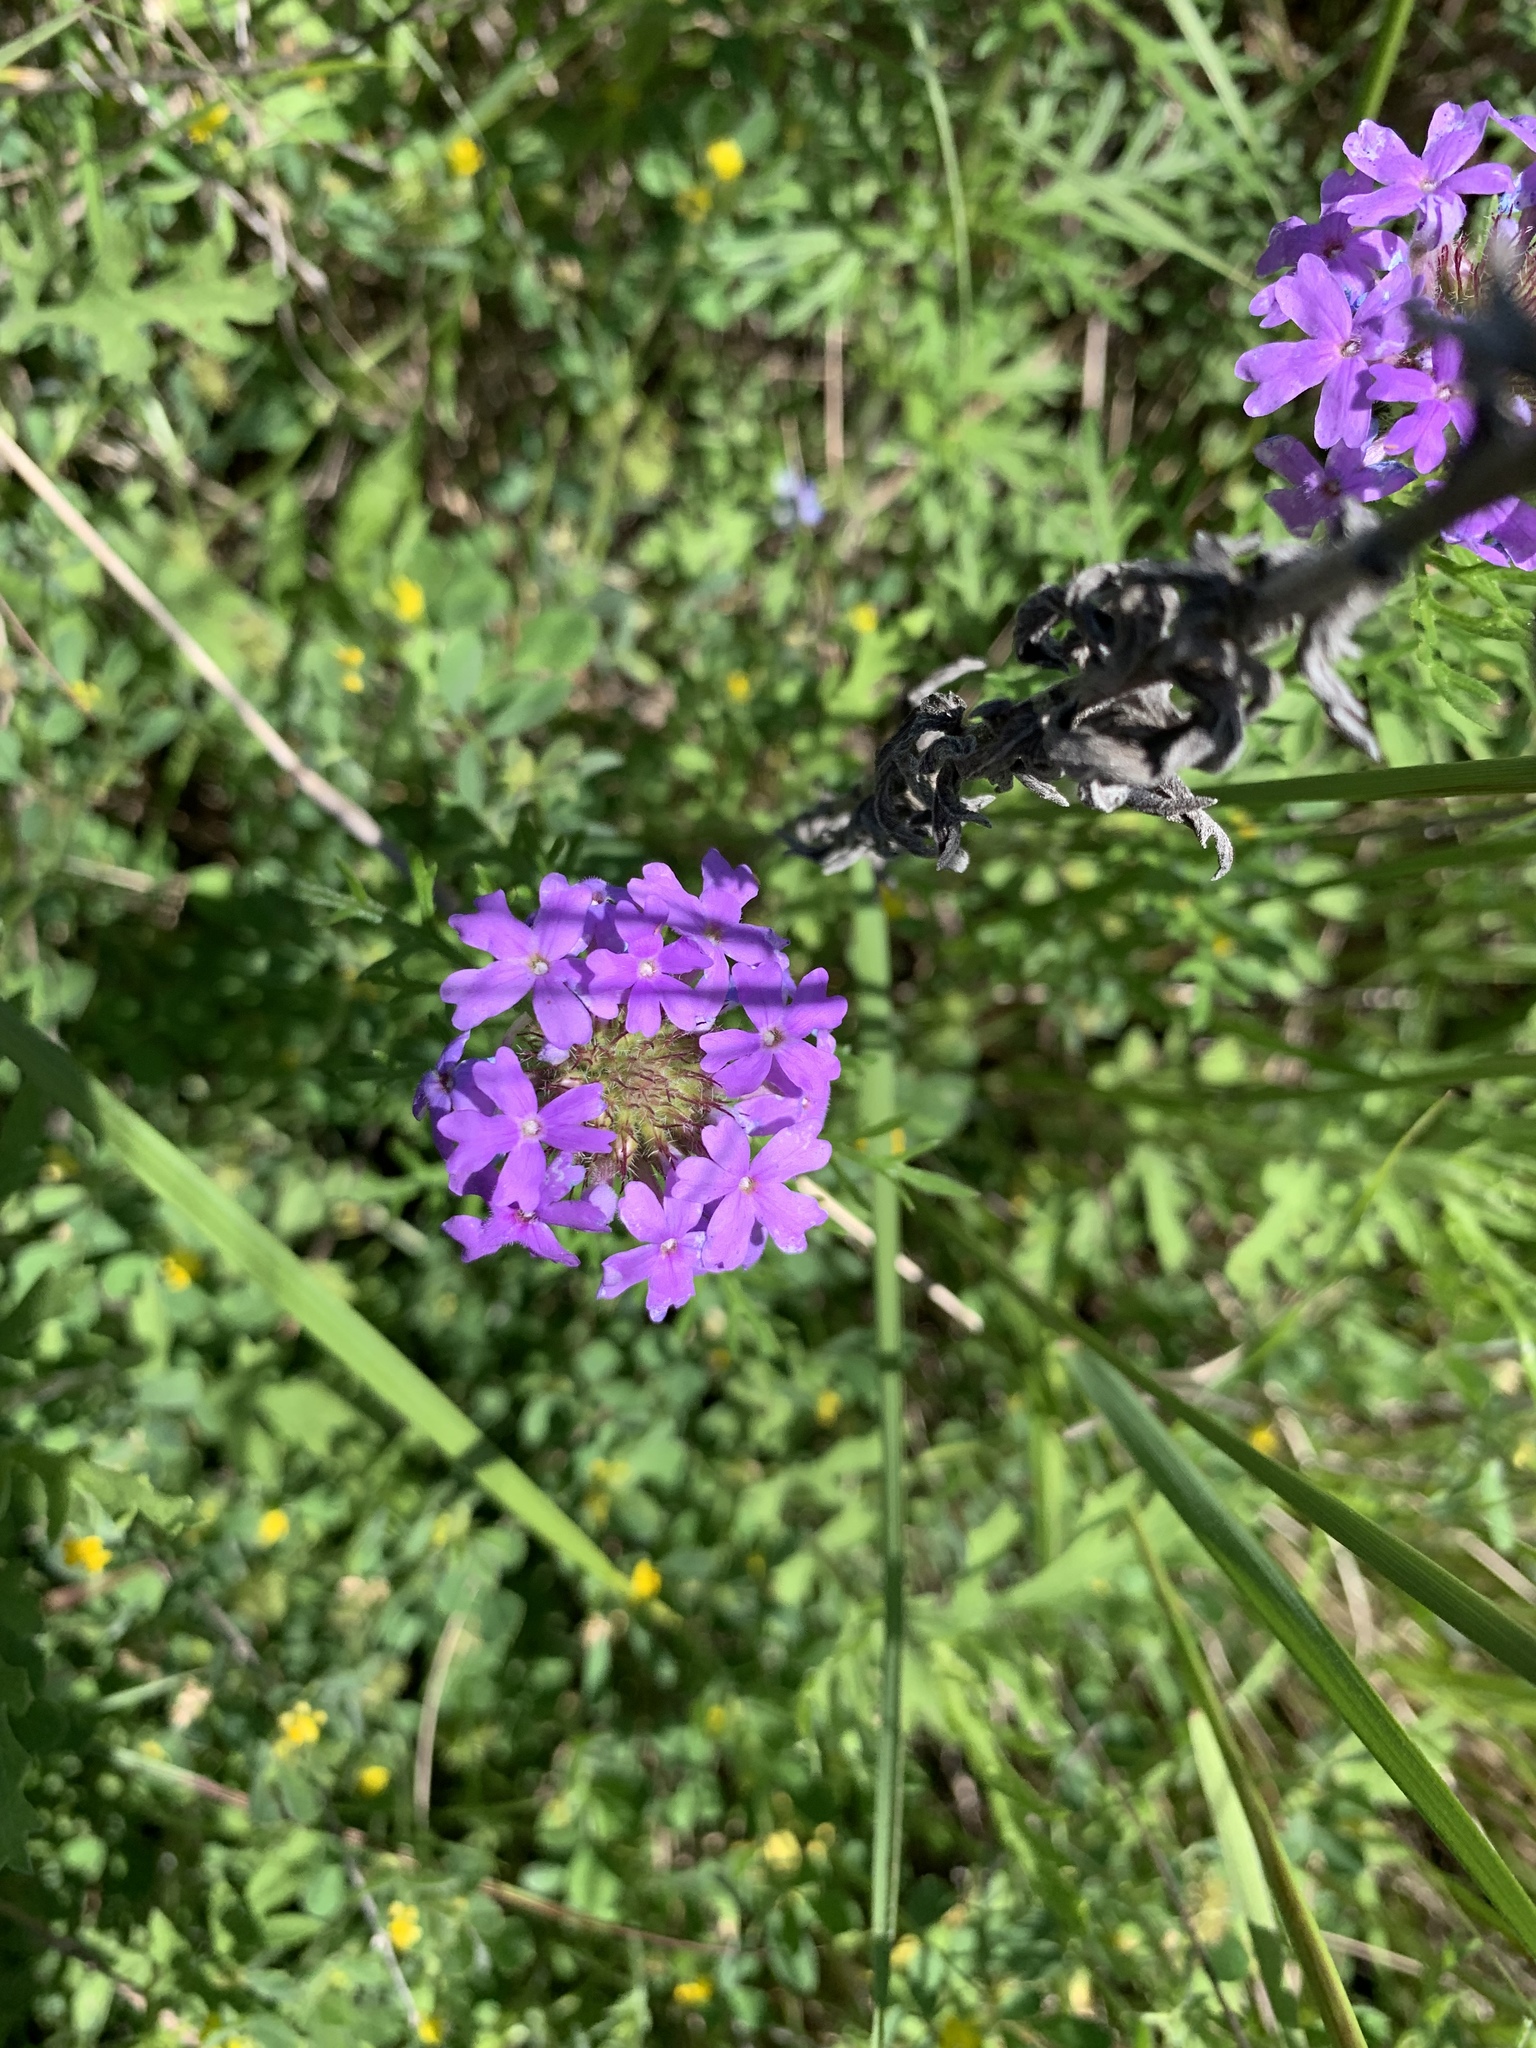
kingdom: Plantae
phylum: Tracheophyta
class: Magnoliopsida
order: Lamiales
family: Verbenaceae
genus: Verbena
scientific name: Verbena bipinnatifida
